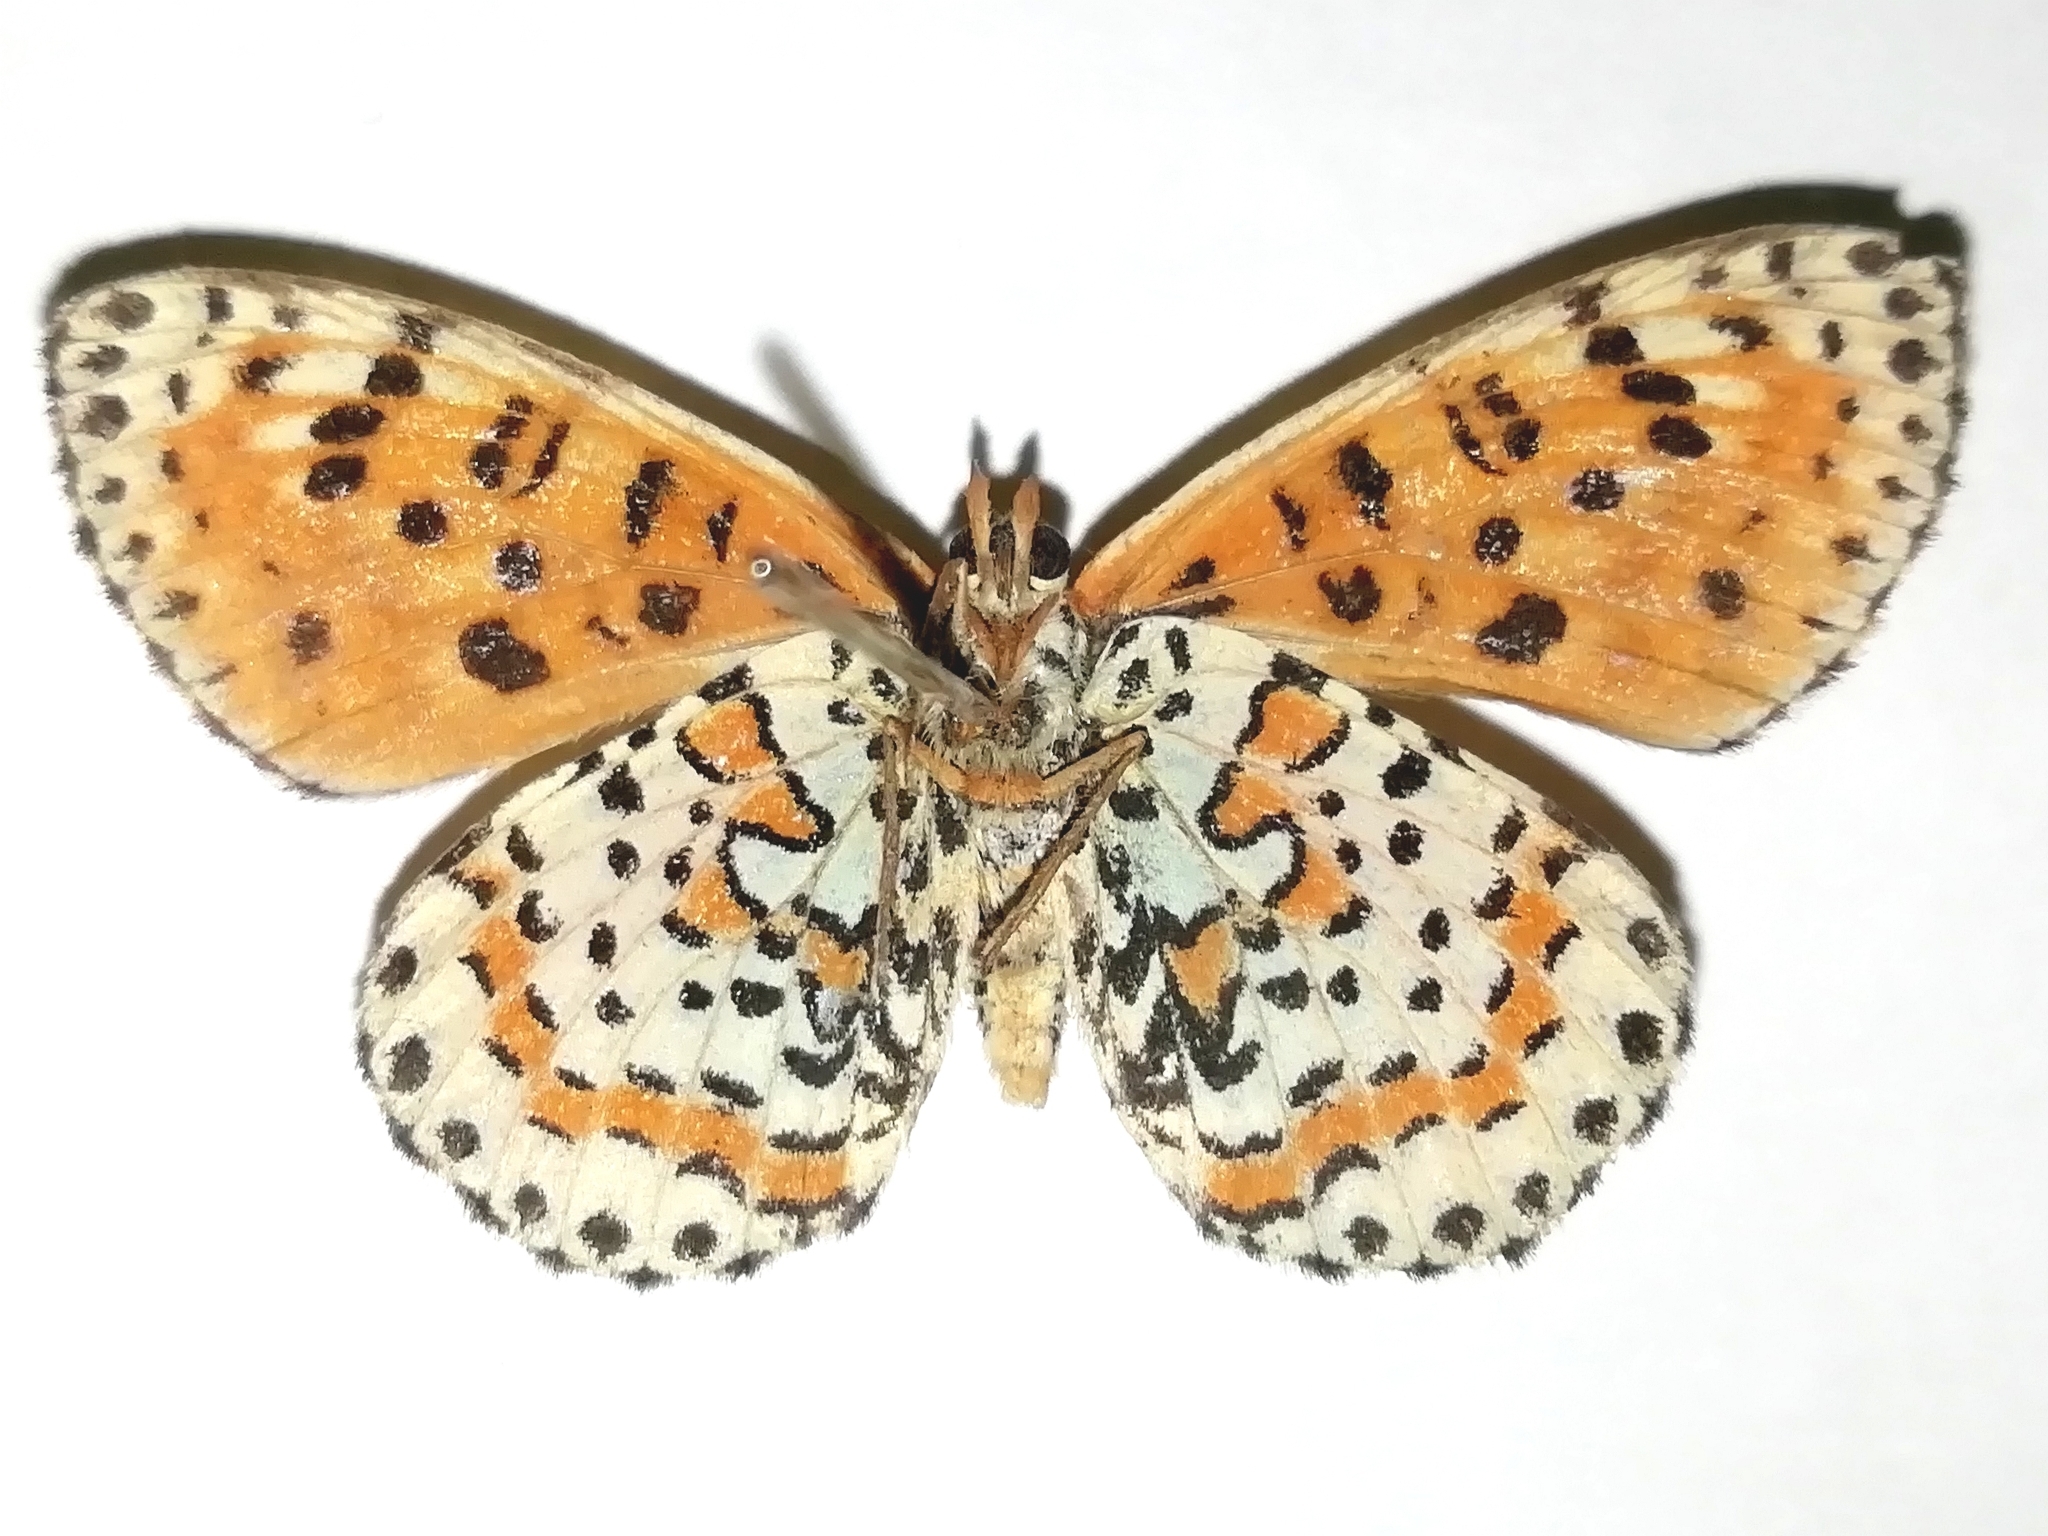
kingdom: Animalia
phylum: Arthropoda
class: Insecta
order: Lepidoptera
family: Nymphalidae
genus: Melitaea
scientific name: Melitaea didyma
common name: Spotted fritillary
